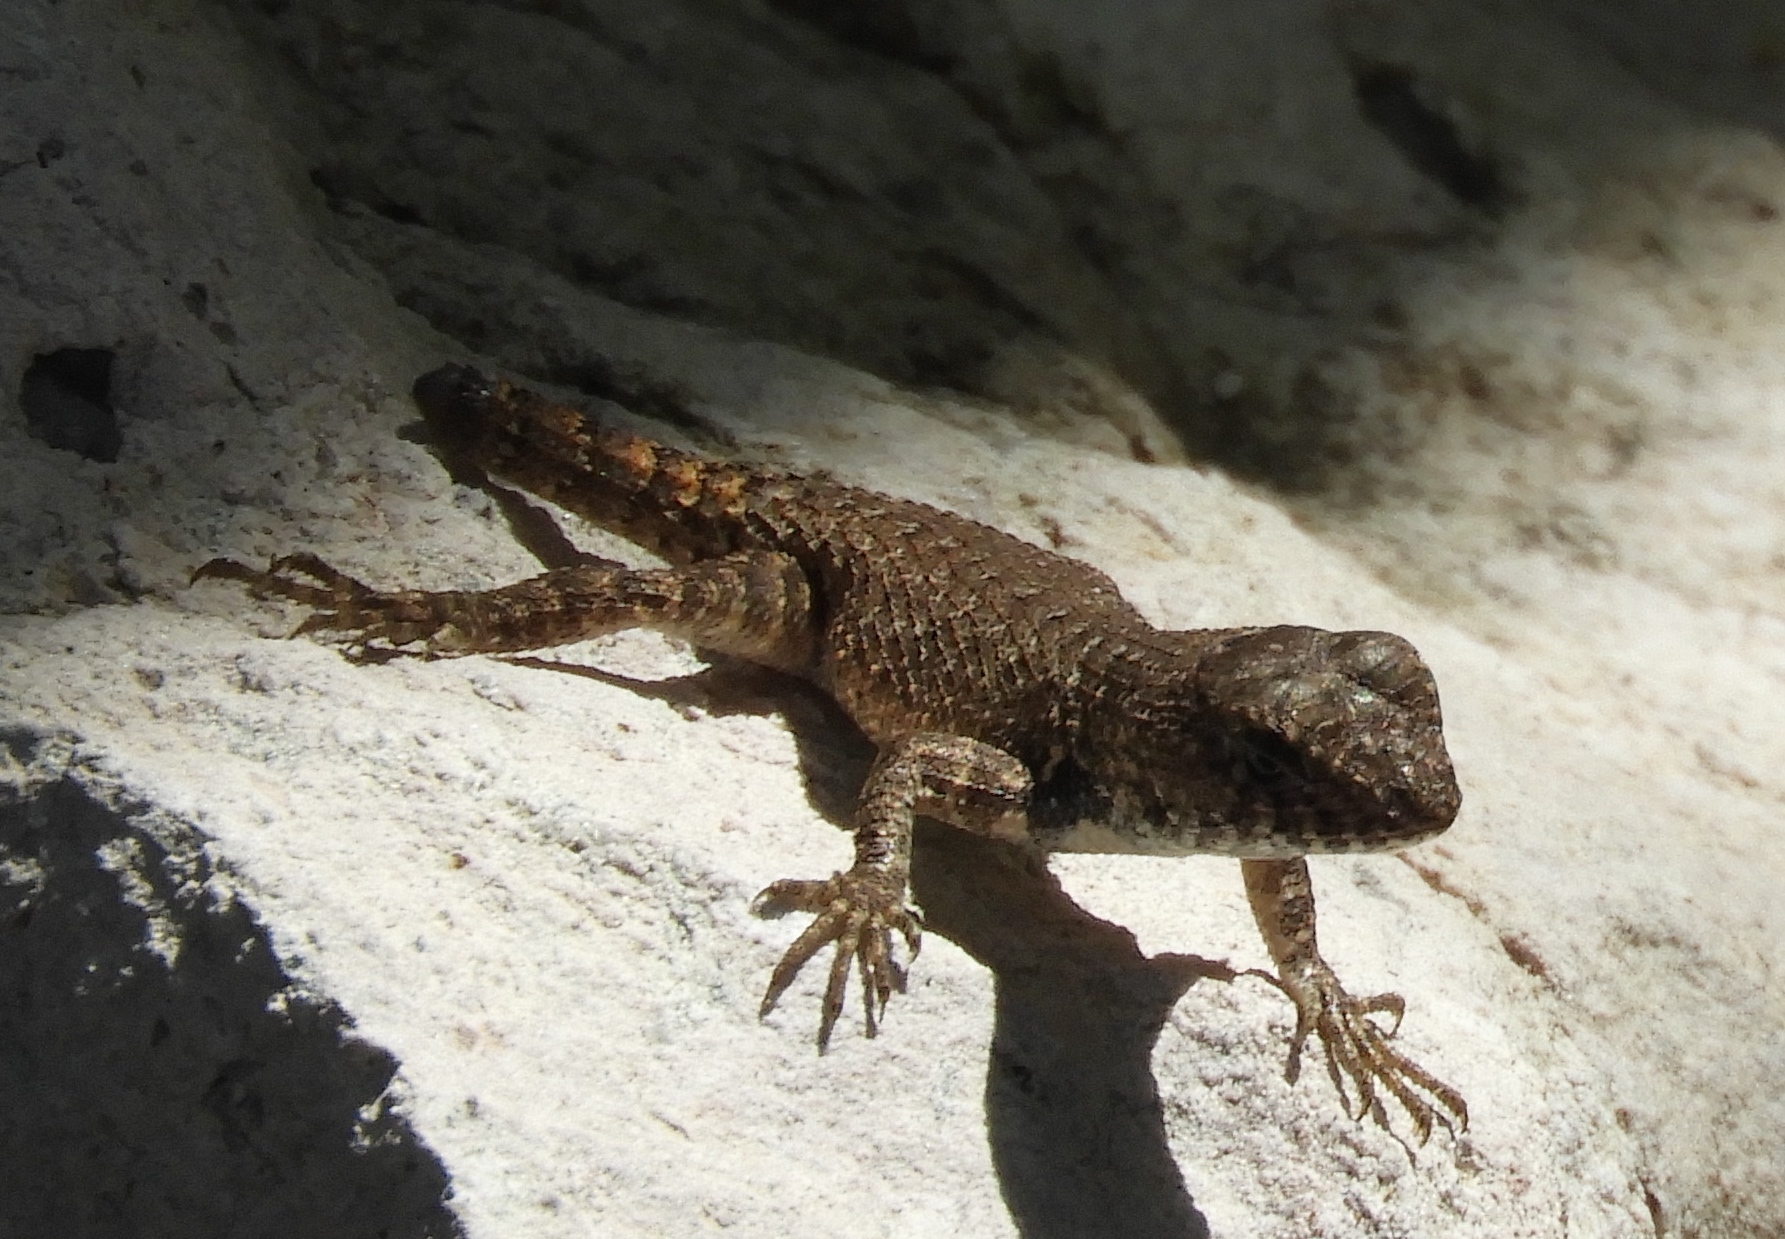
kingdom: Animalia
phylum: Chordata
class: Squamata
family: Phrynosomatidae
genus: Sceloporus
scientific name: Sceloporus nelsoni
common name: Nelson's spiny lizard
